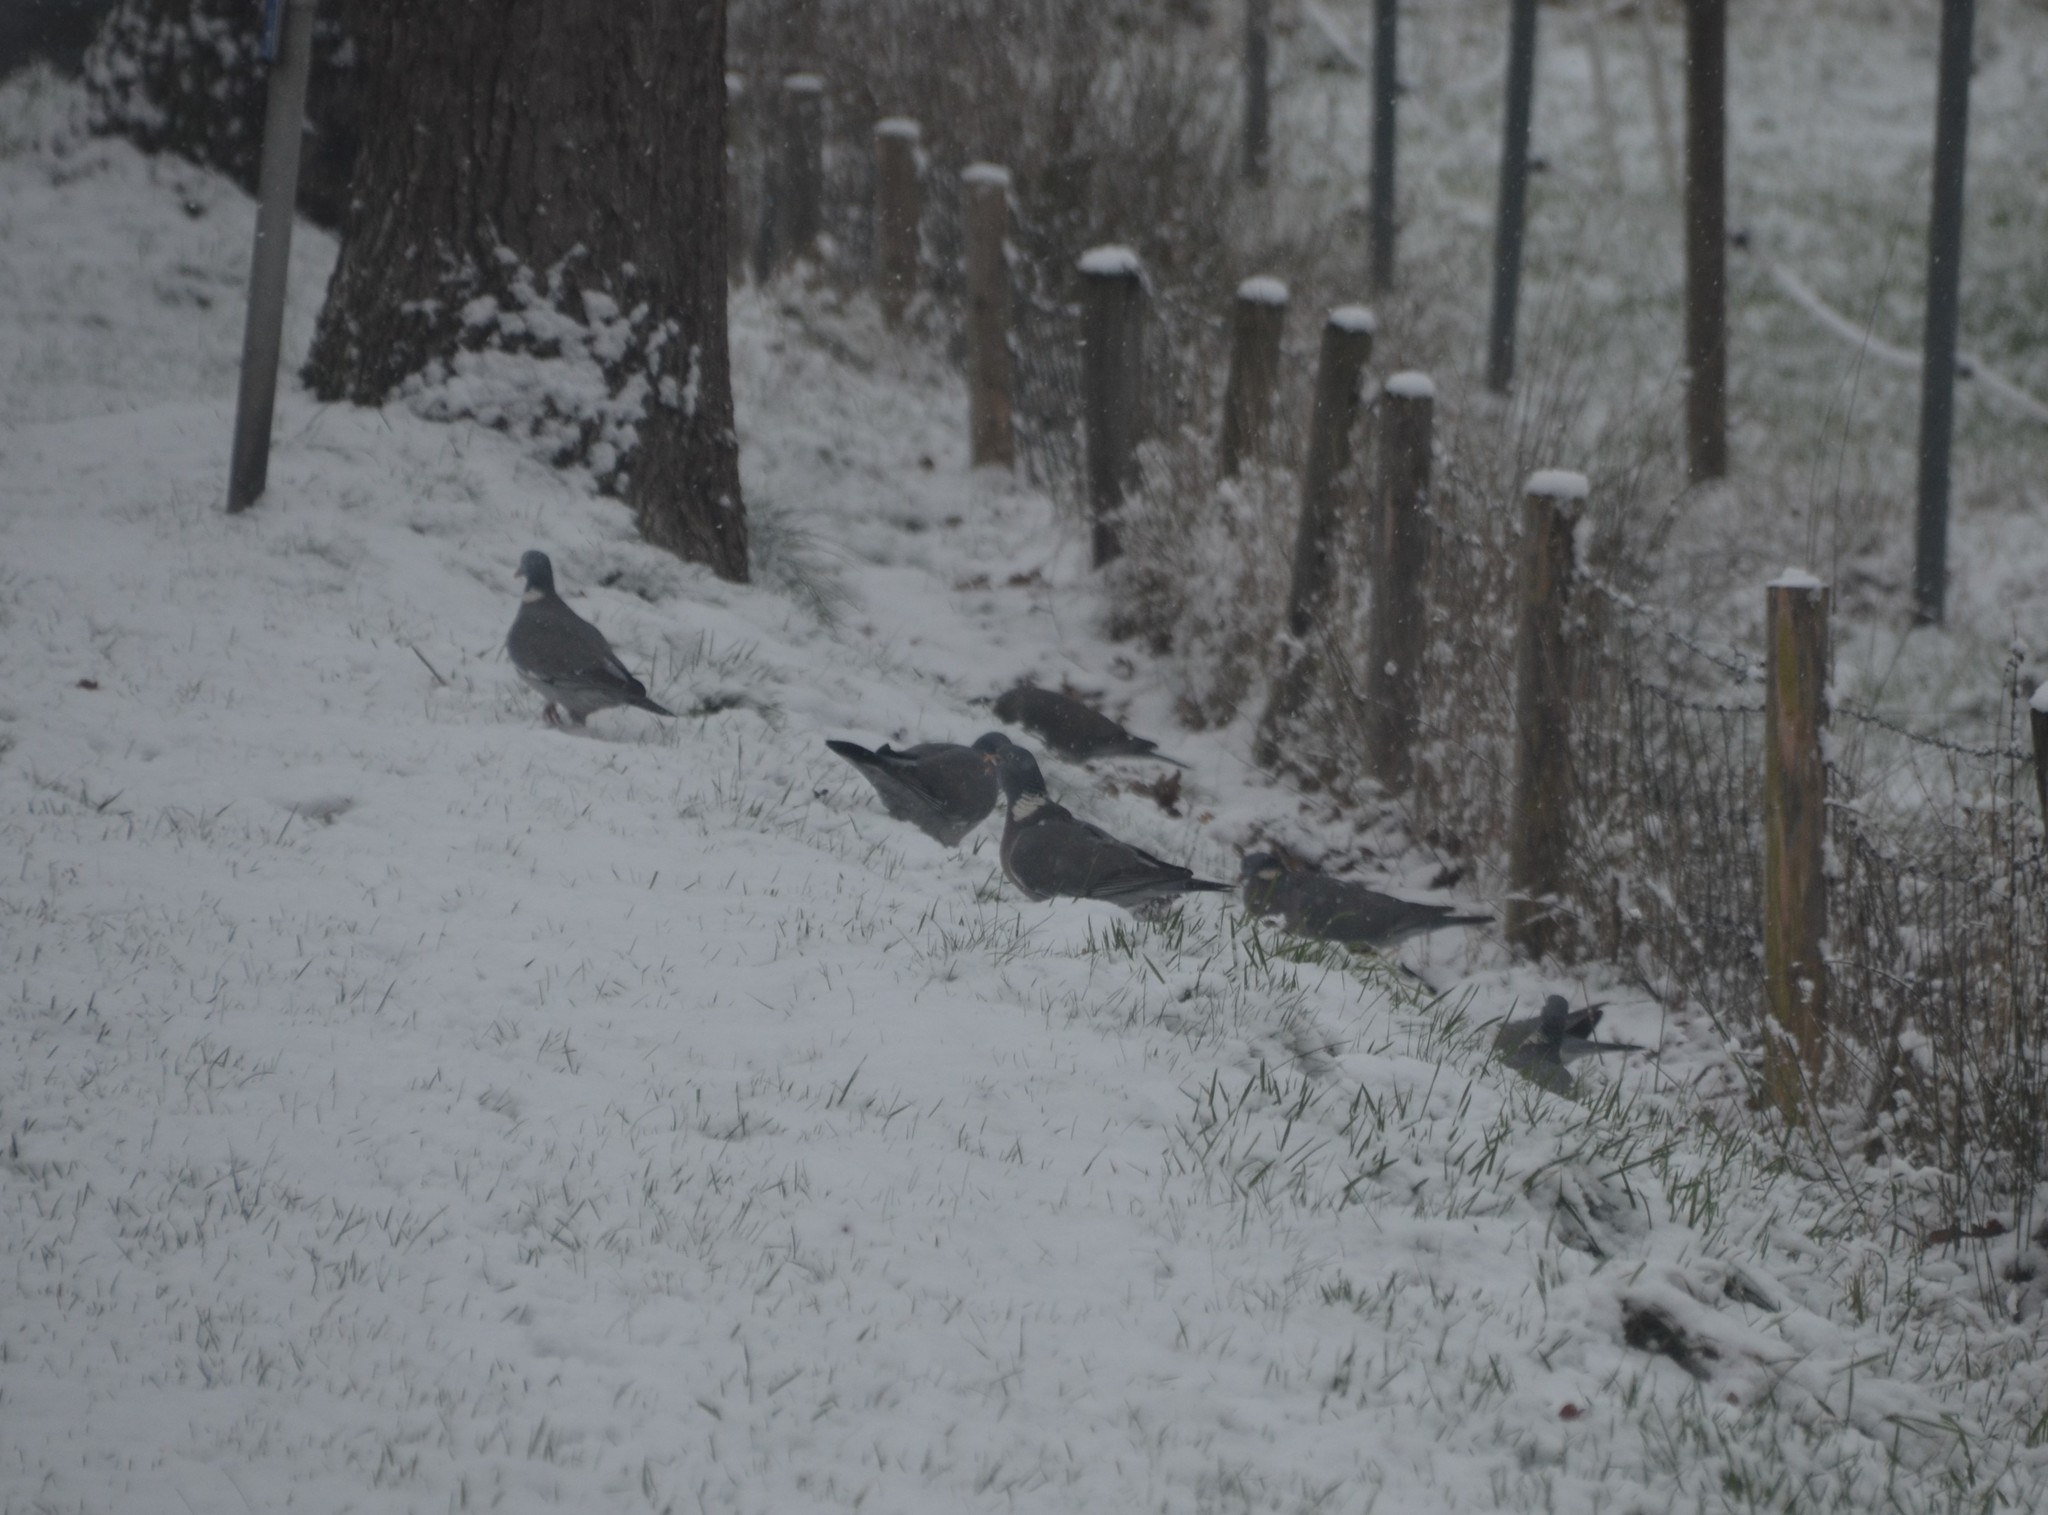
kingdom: Animalia
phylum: Chordata
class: Aves
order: Columbiformes
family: Columbidae
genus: Columba
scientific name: Columba palumbus
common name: Common wood pigeon
